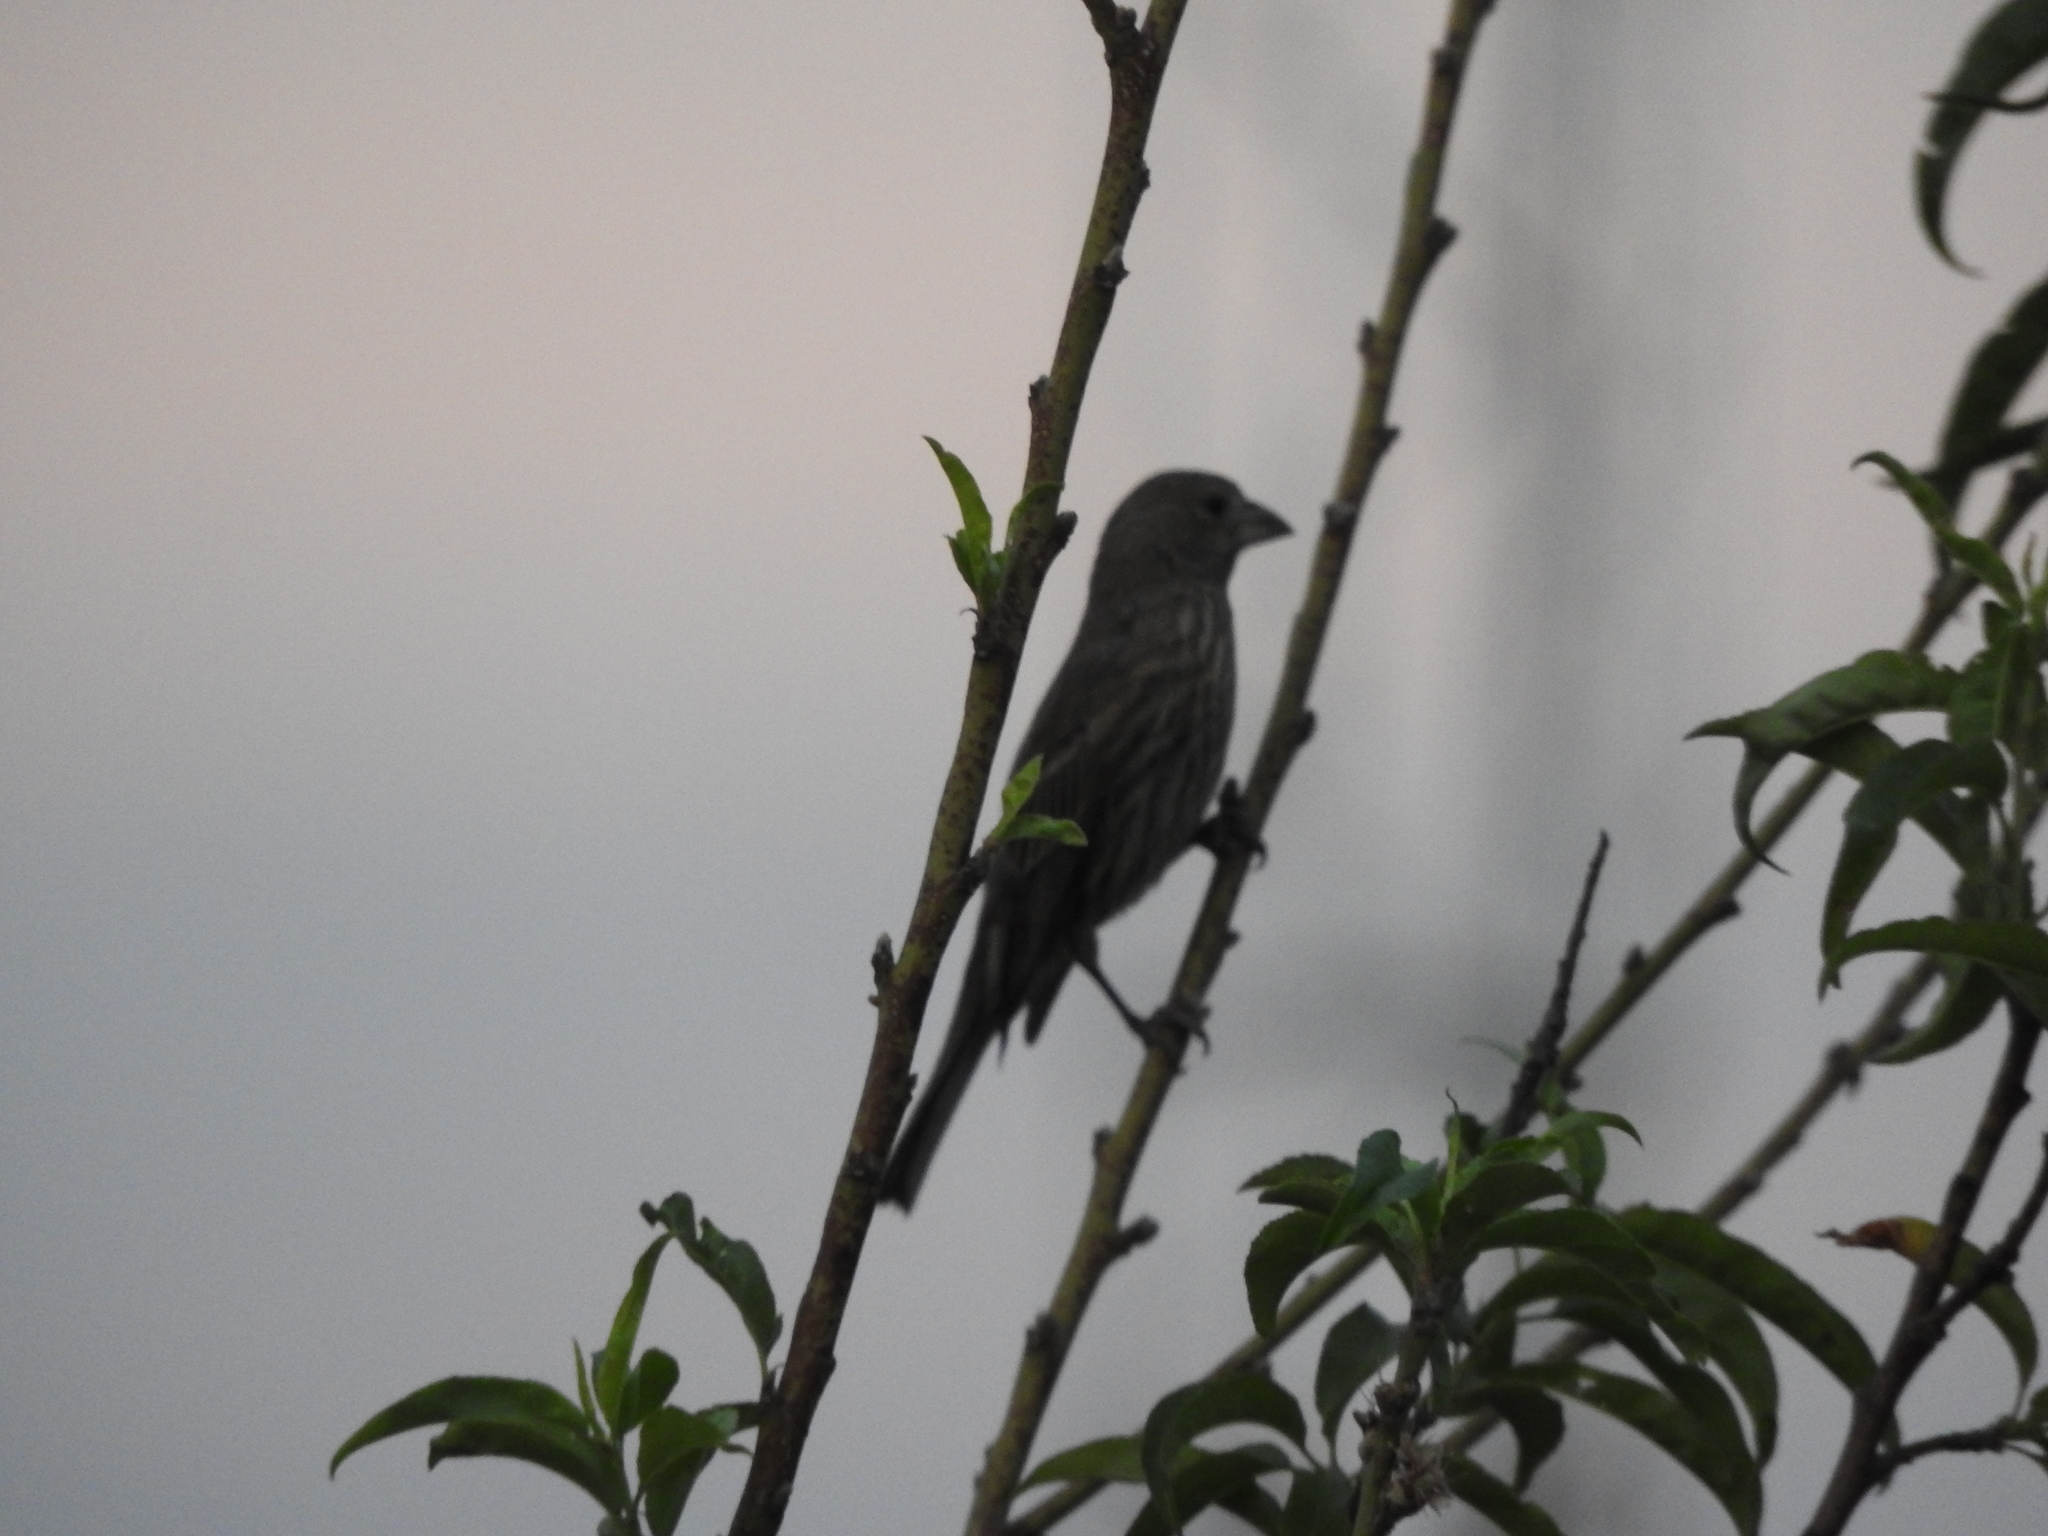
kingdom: Animalia
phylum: Chordata
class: Aves
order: Passeriformes
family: Fringillidae
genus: Haemorhous
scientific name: Haemorhous mexicanus
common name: House finch
